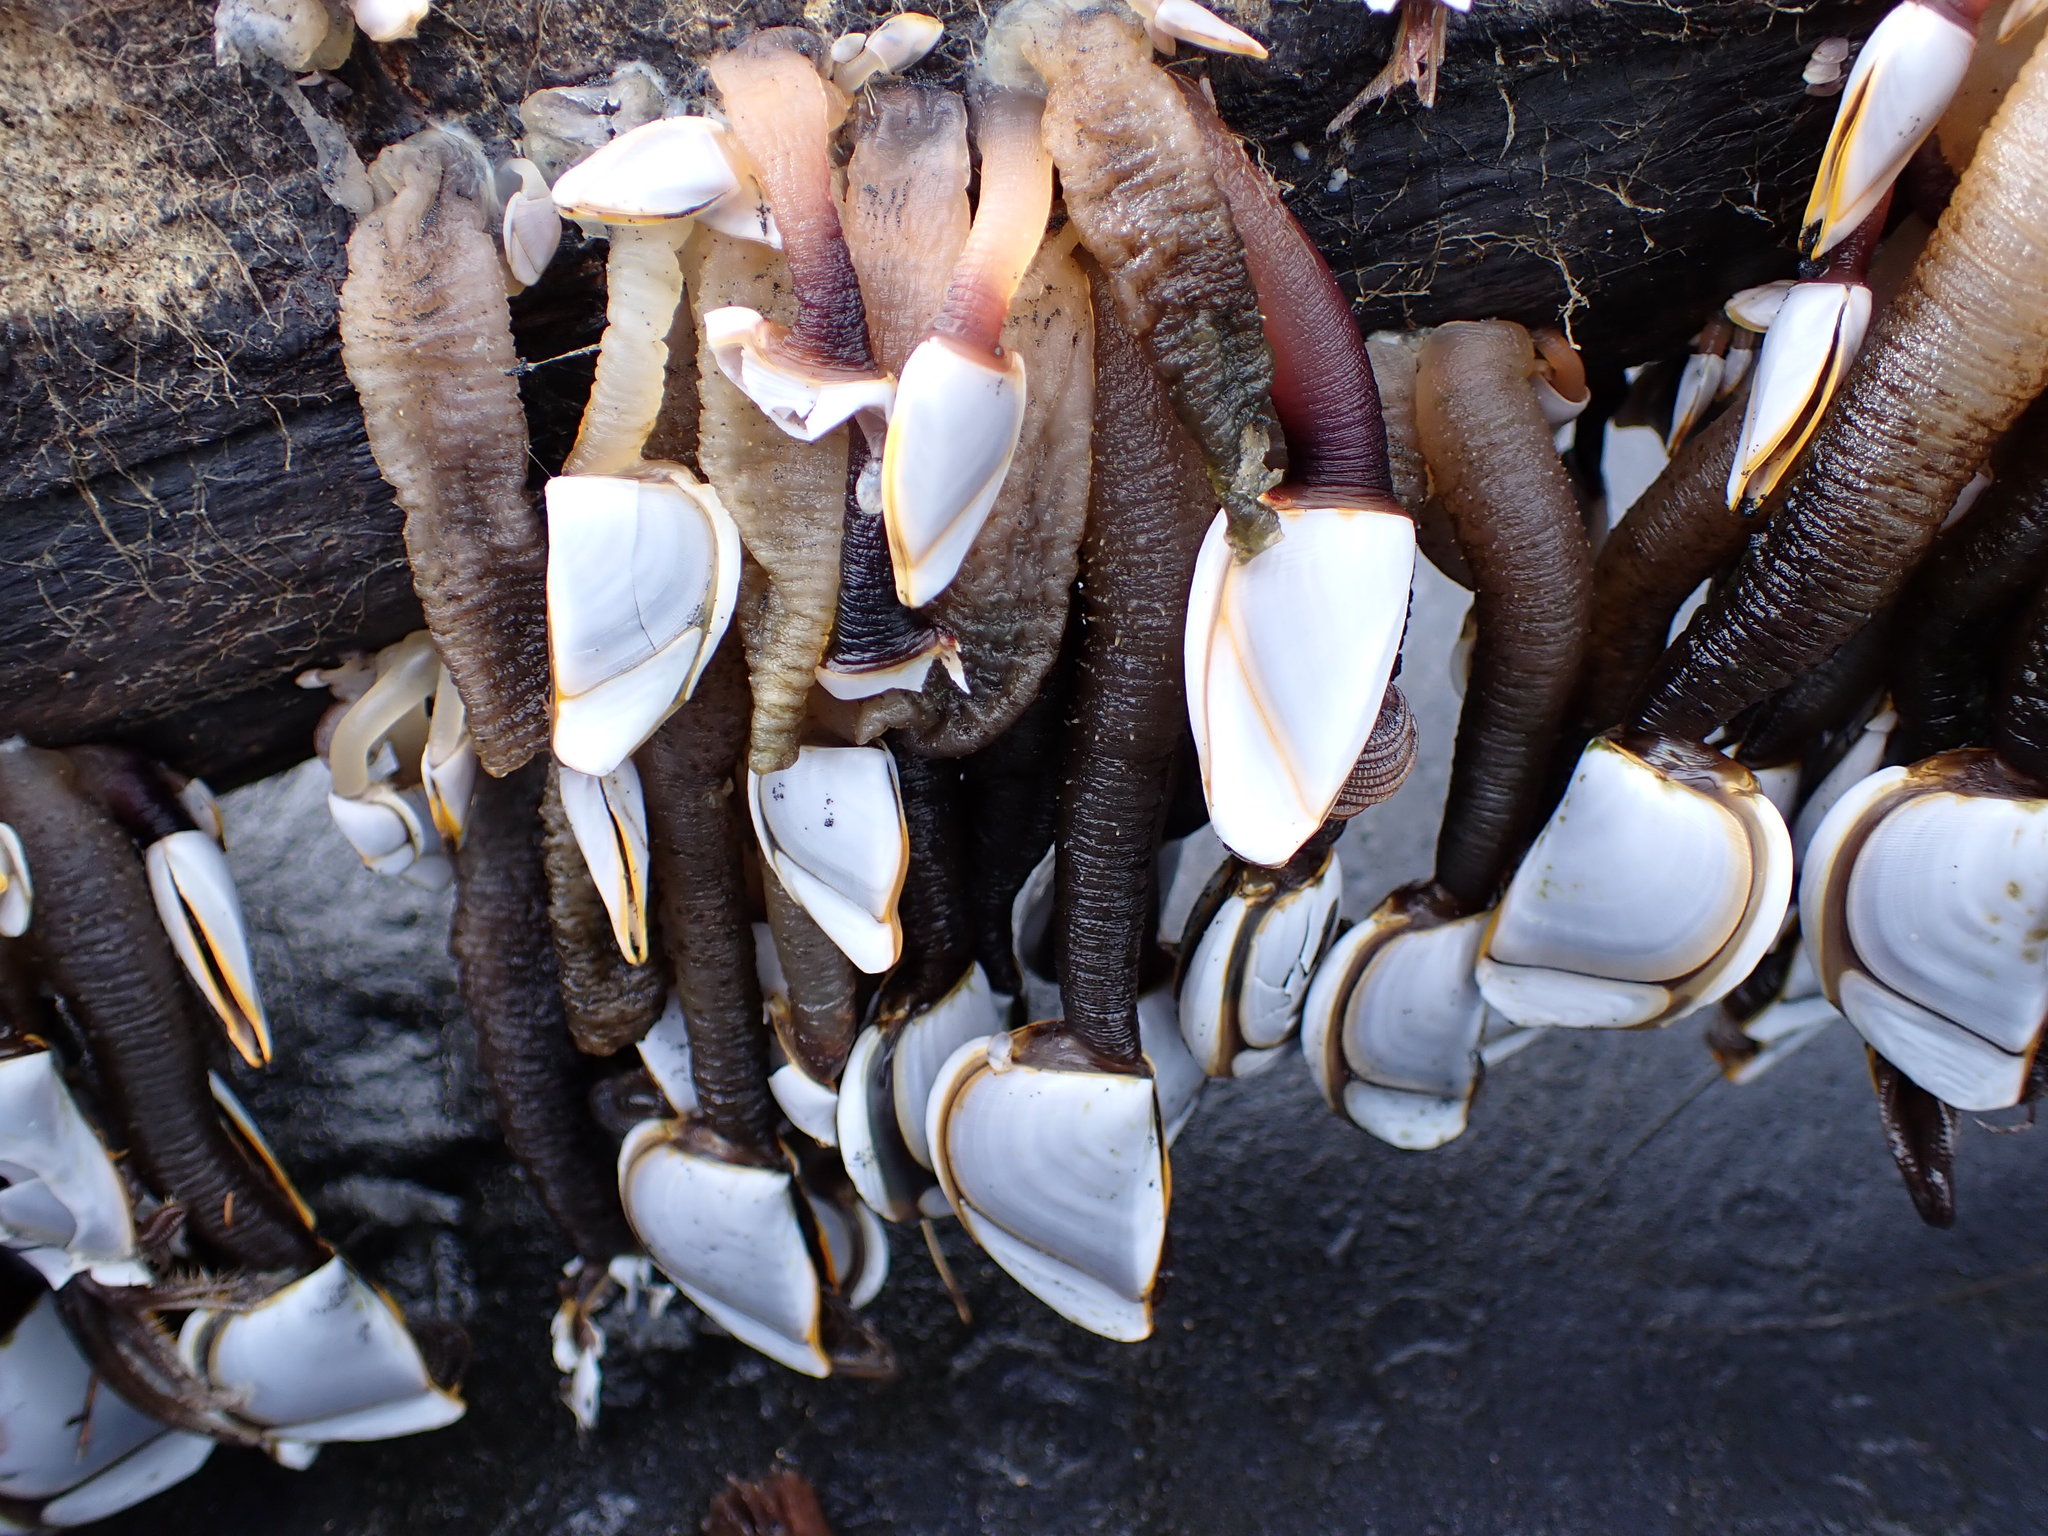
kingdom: Animalia
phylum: Arthropoda
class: Maxillopoda
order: Pedunculata
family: Lepadidae
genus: Lepas
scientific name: Lepas anatifera
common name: Common goose barnacle
